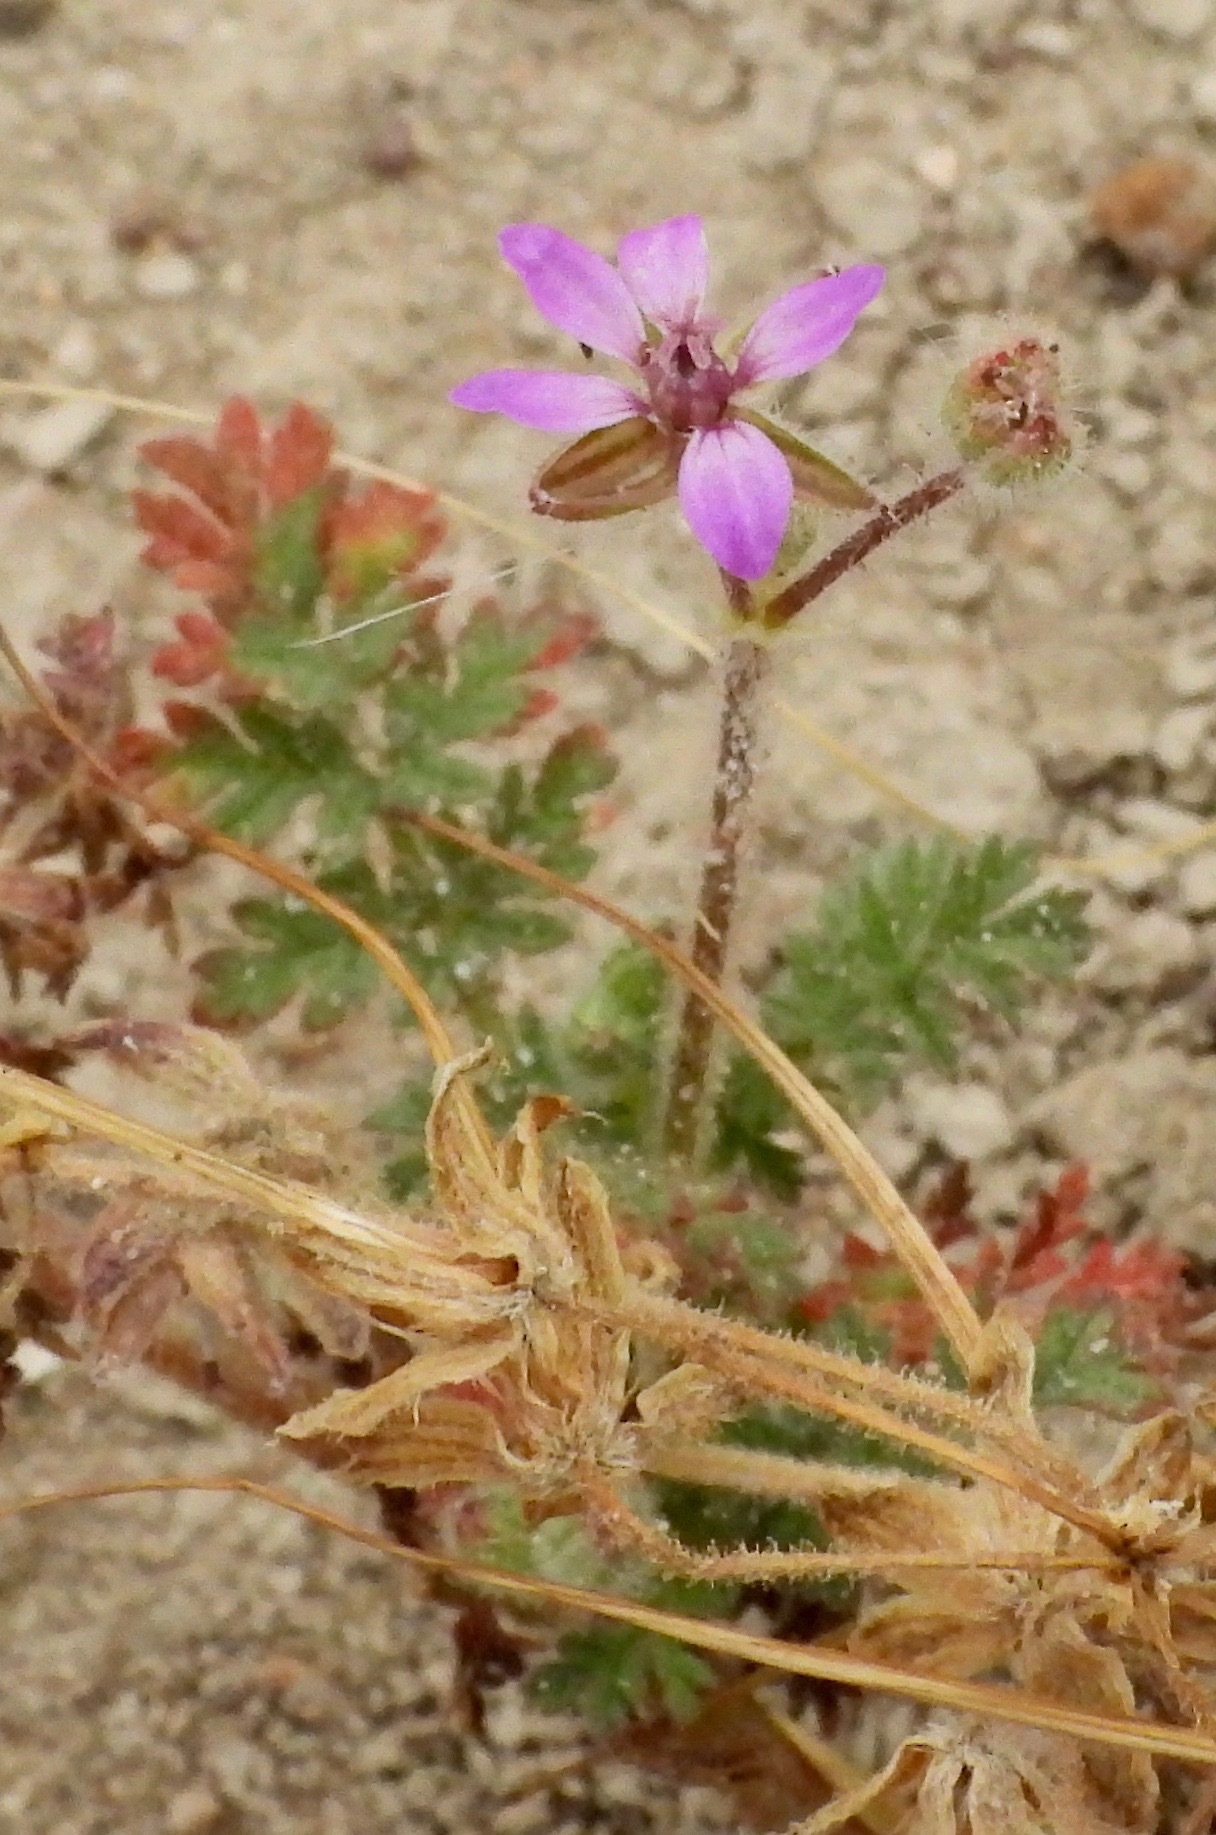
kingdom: Plantae
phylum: Tracheophyta
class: Magnoliopsida
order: Geraniales
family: Geraniaceae
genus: Erodium
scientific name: Erodium cicutarium
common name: Common stork's-bill
